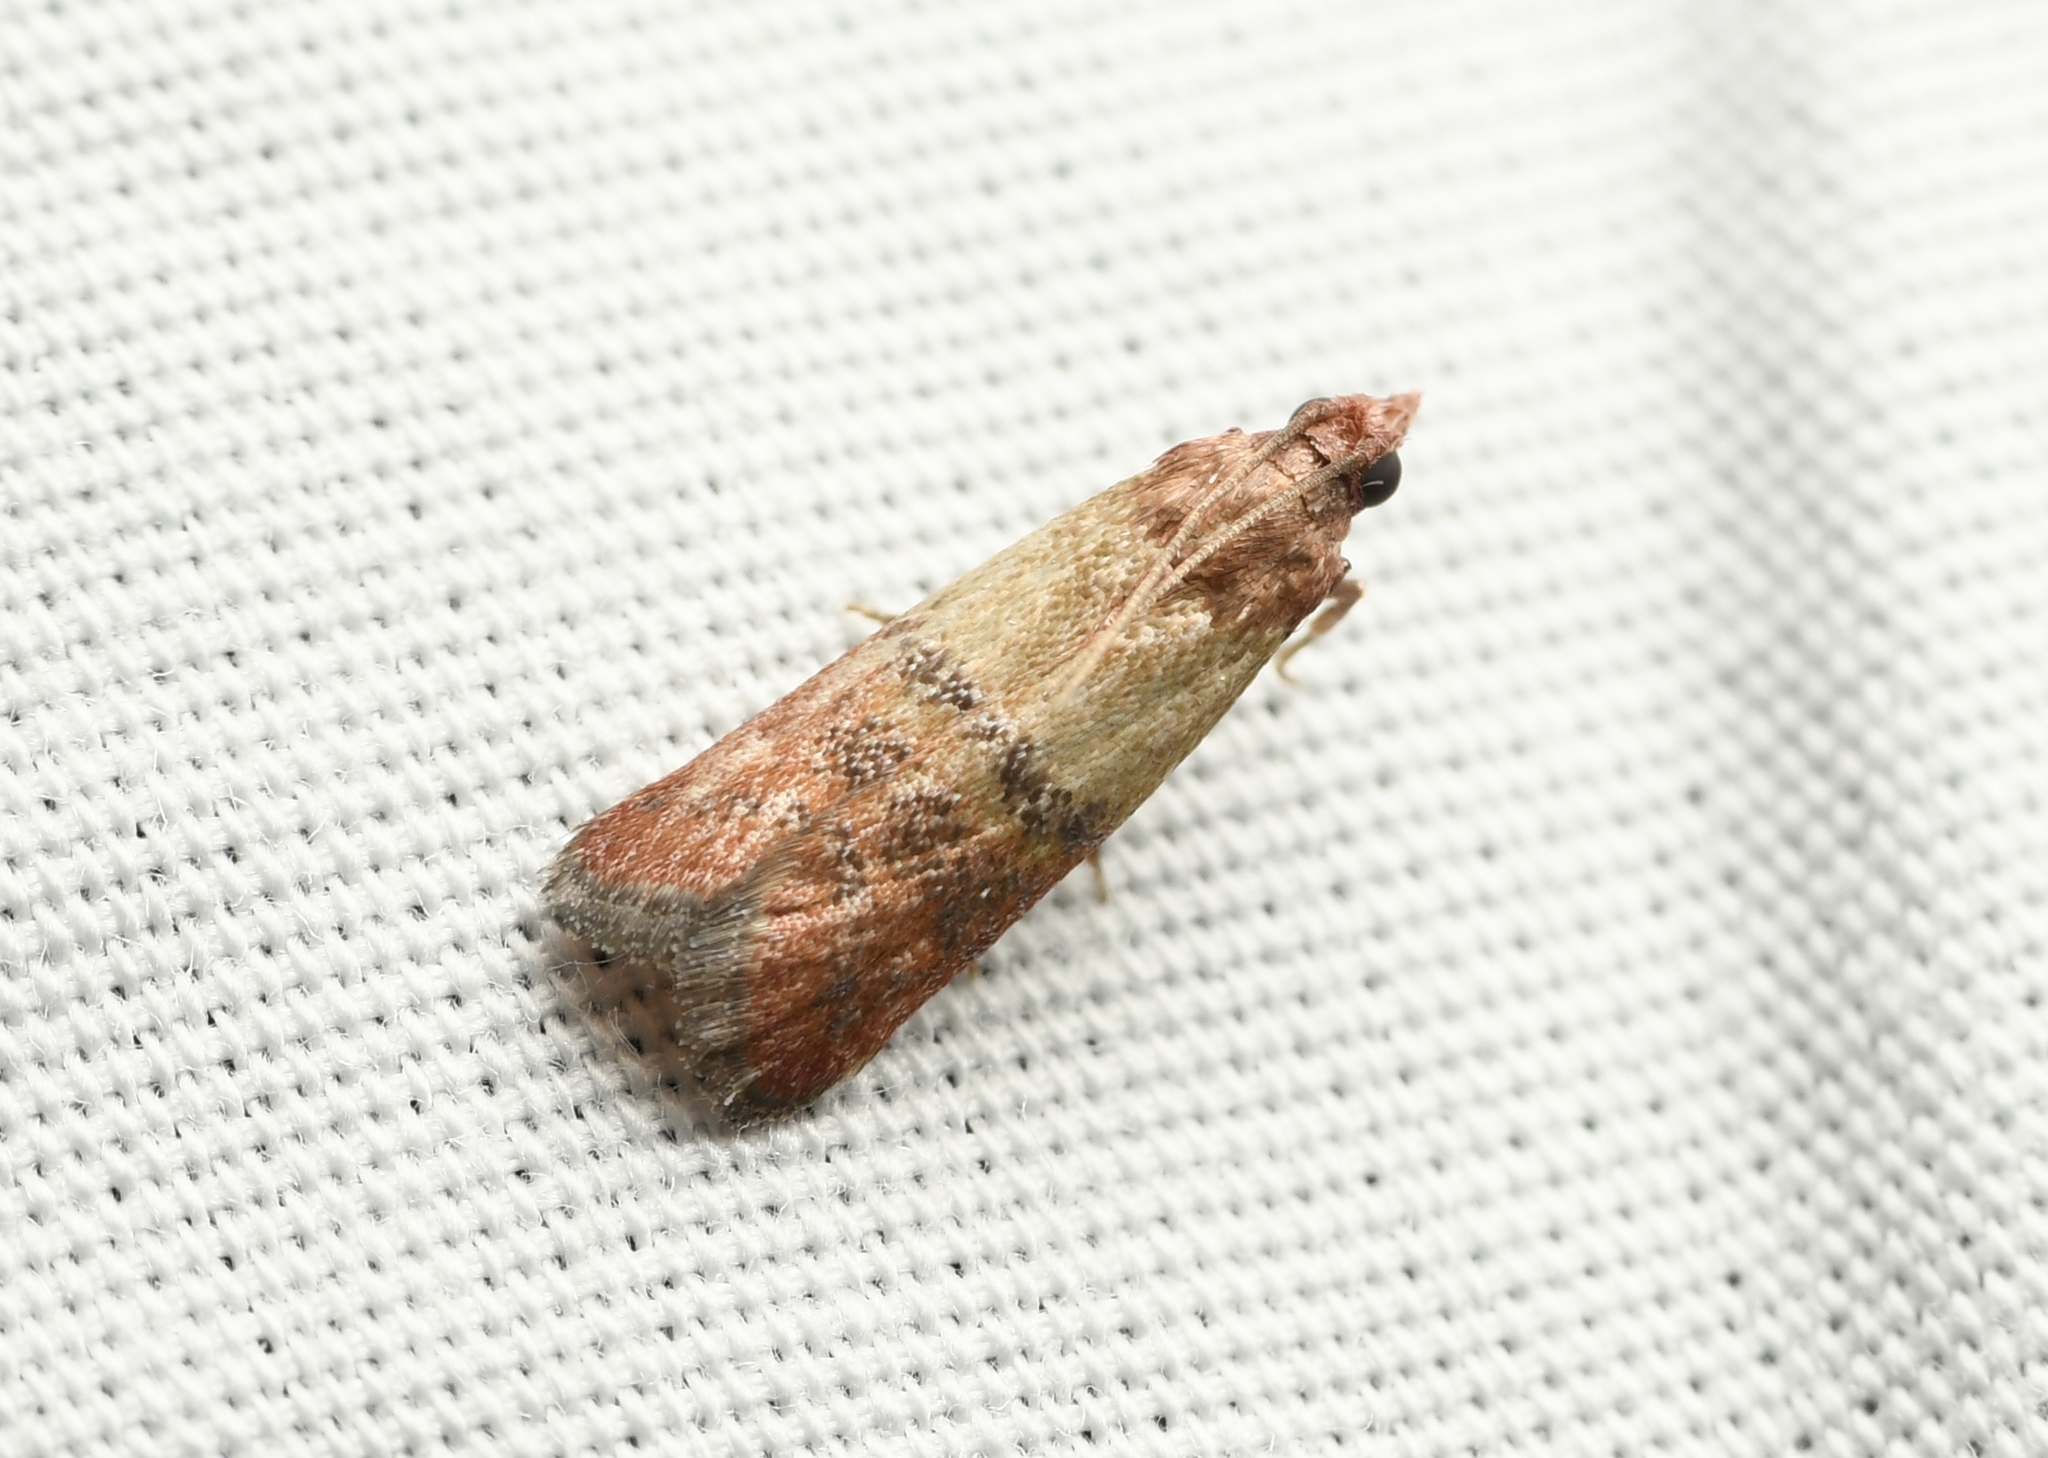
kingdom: Animalia
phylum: Arthropoda
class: Insecta
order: Lepidoptera
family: Pyralidae
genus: Plodia
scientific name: Plodia interpunctella
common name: Indian meal moth
